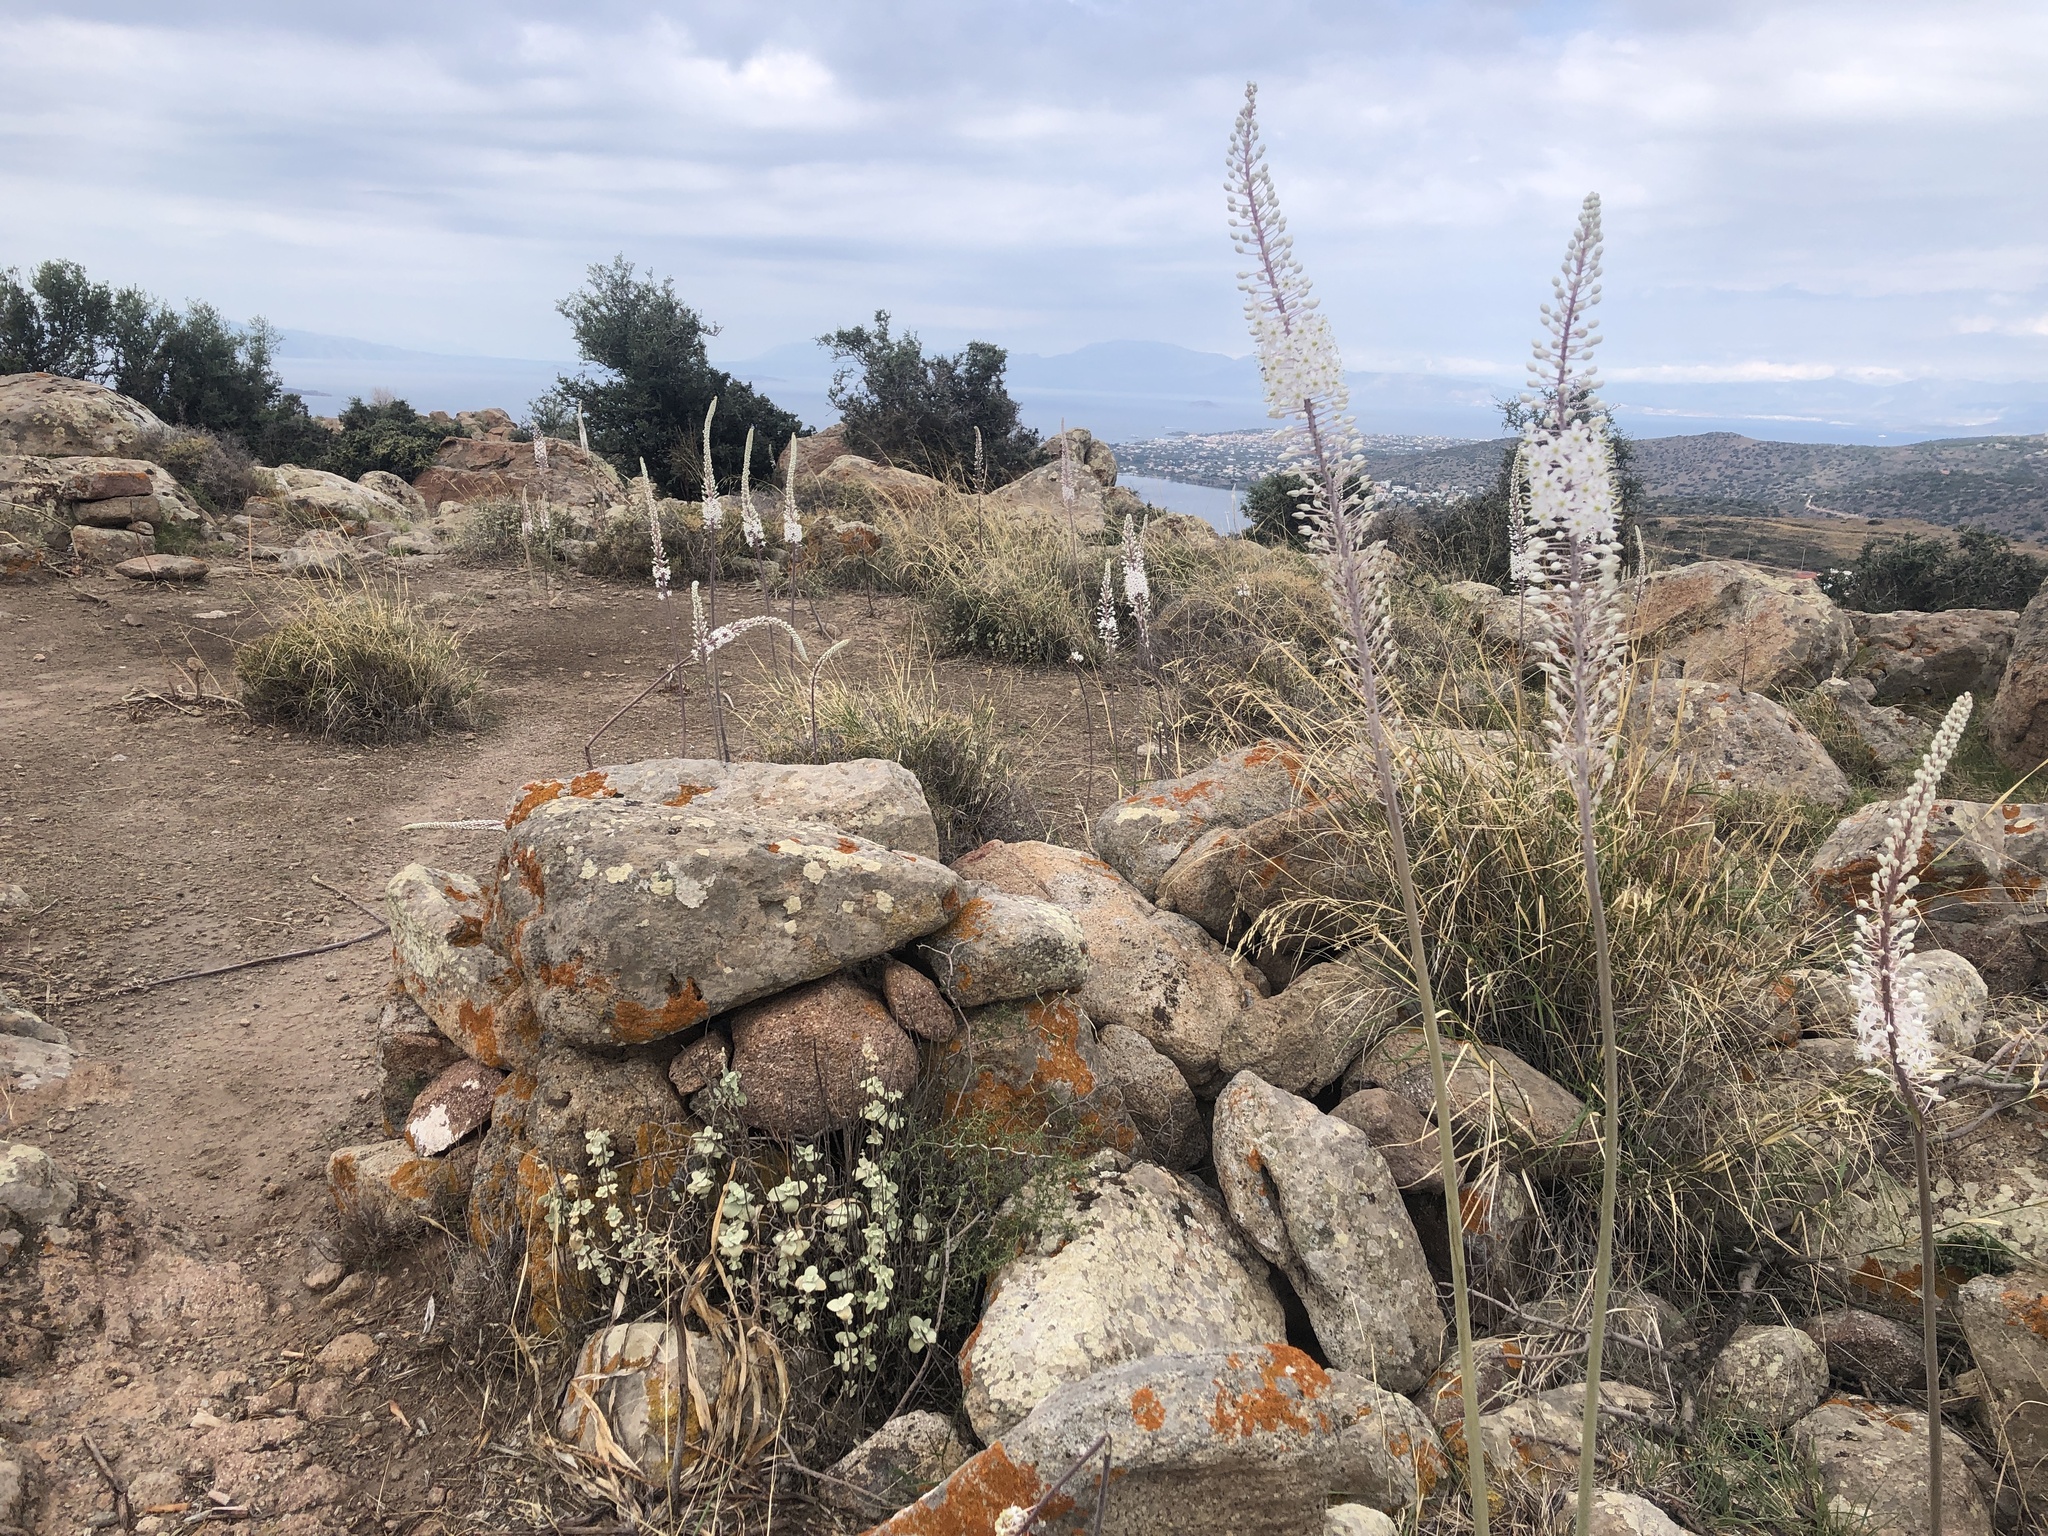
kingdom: Plantae
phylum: Tracheophyta
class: Liliopsida
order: Asparagales
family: Asparagaceae
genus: Drimia
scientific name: Drimia numidica
